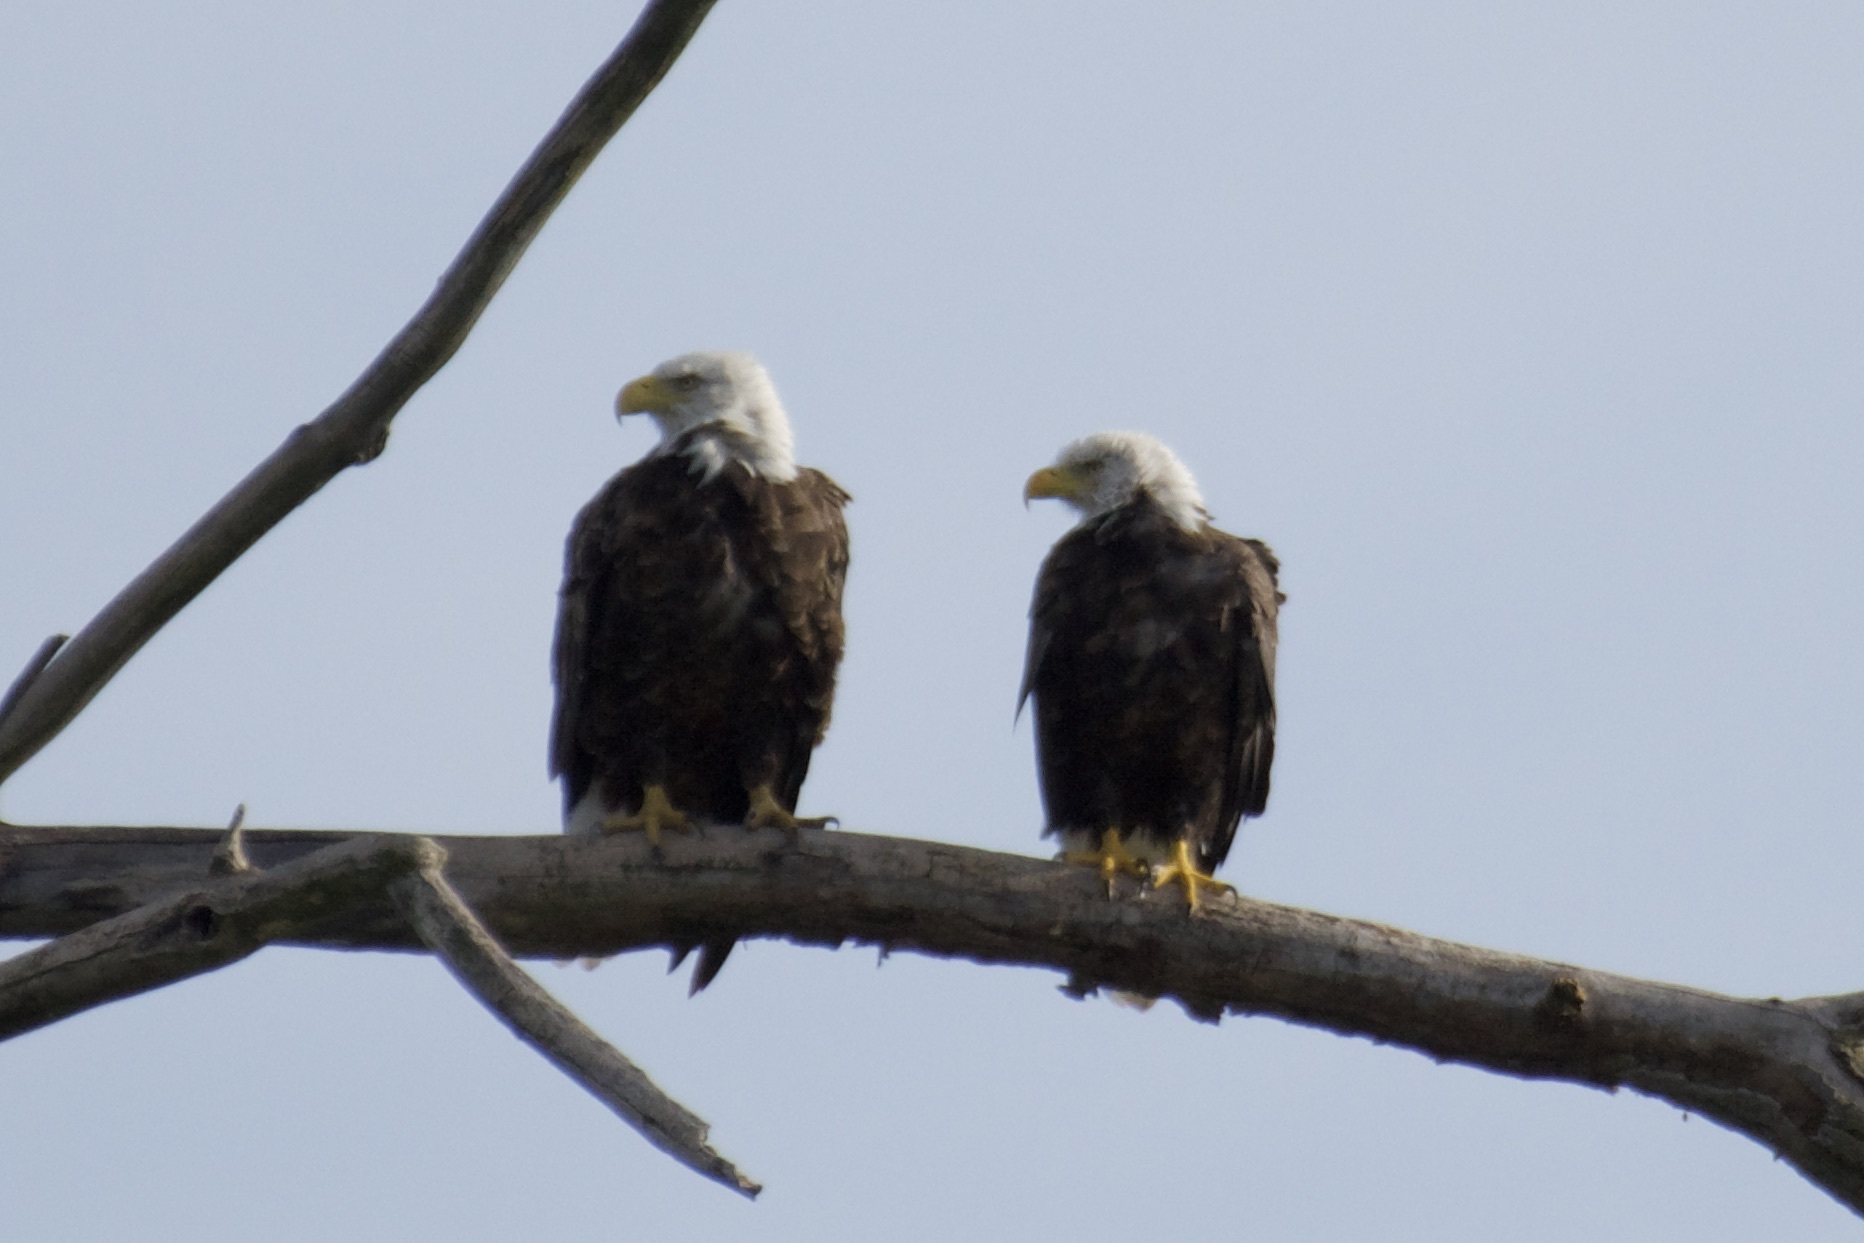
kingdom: Animalia
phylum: Chordata
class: Aves
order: Accipitriformes
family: Accipitridae
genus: Haliaeetus
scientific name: Haliaeetus leucocephalus
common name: Bald eagle
